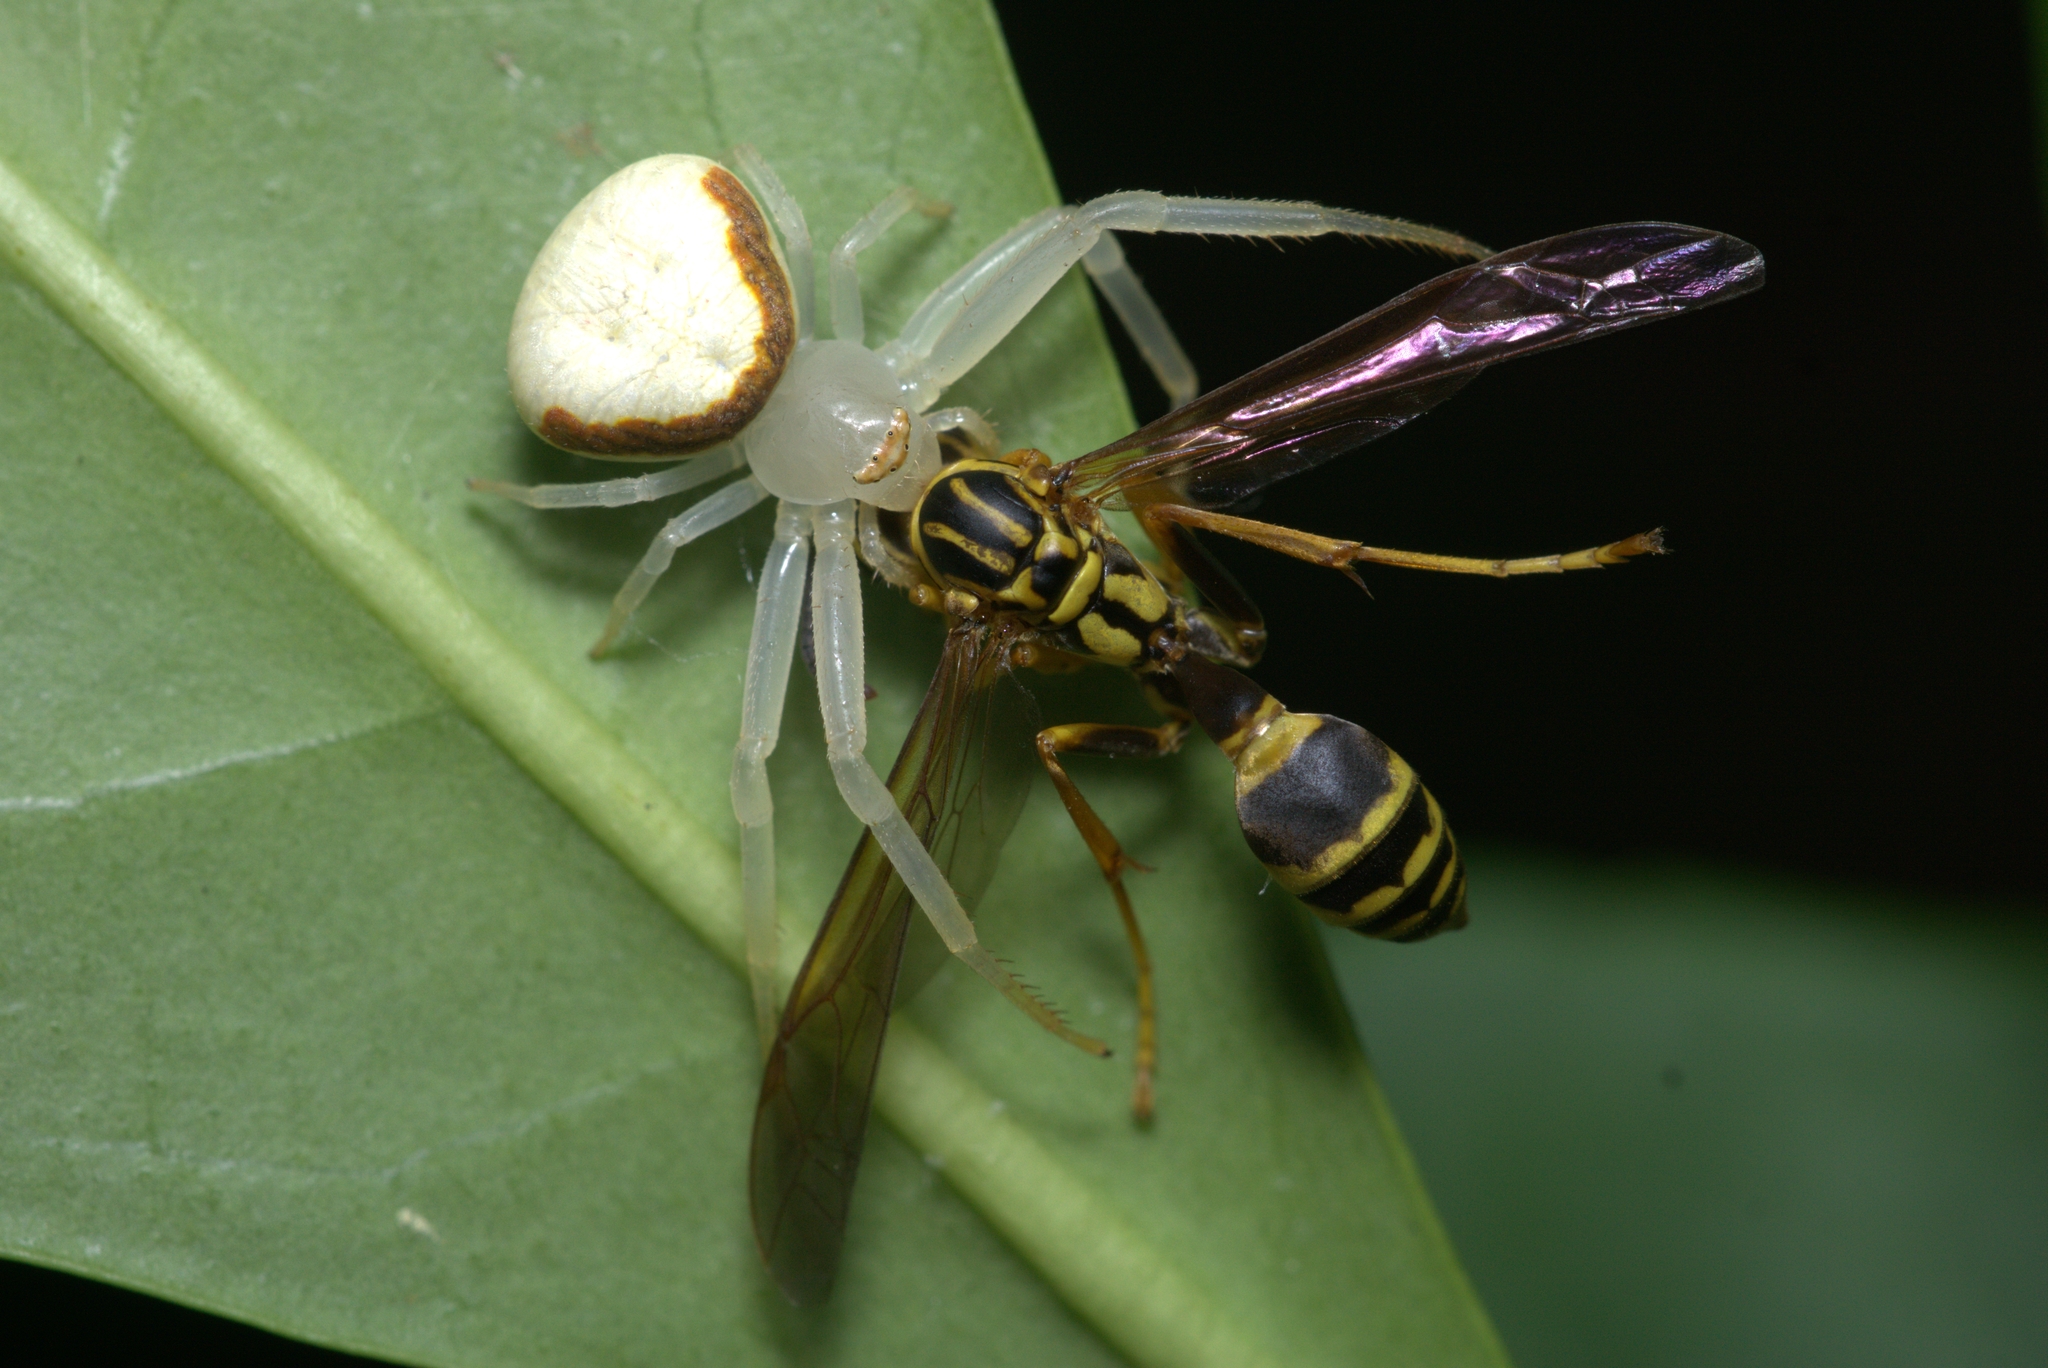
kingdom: Animalia
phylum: Arthropoda
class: Arachnida
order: Araneae
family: Thomisidae
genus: Misumenops
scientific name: Misumenops callinurus
